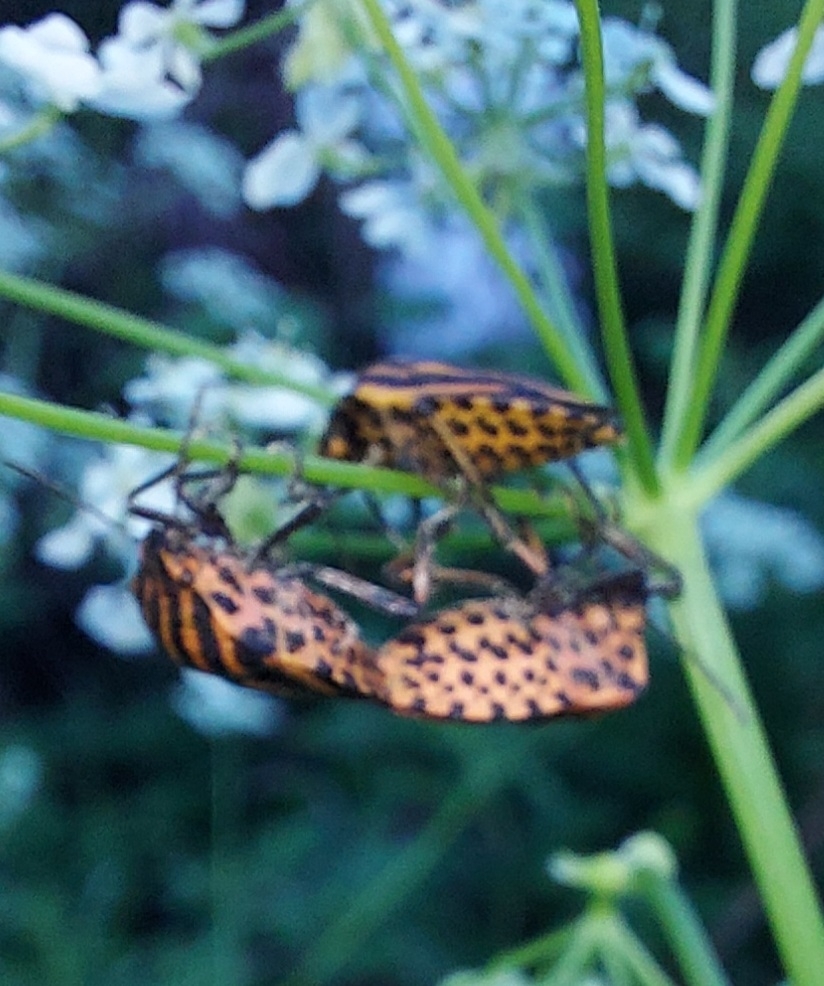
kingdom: Animalia
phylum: Arthropoda
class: Insecta
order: Hemiptera
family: Pentatomidae
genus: Graphosoma
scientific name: Graphosoma italicum
